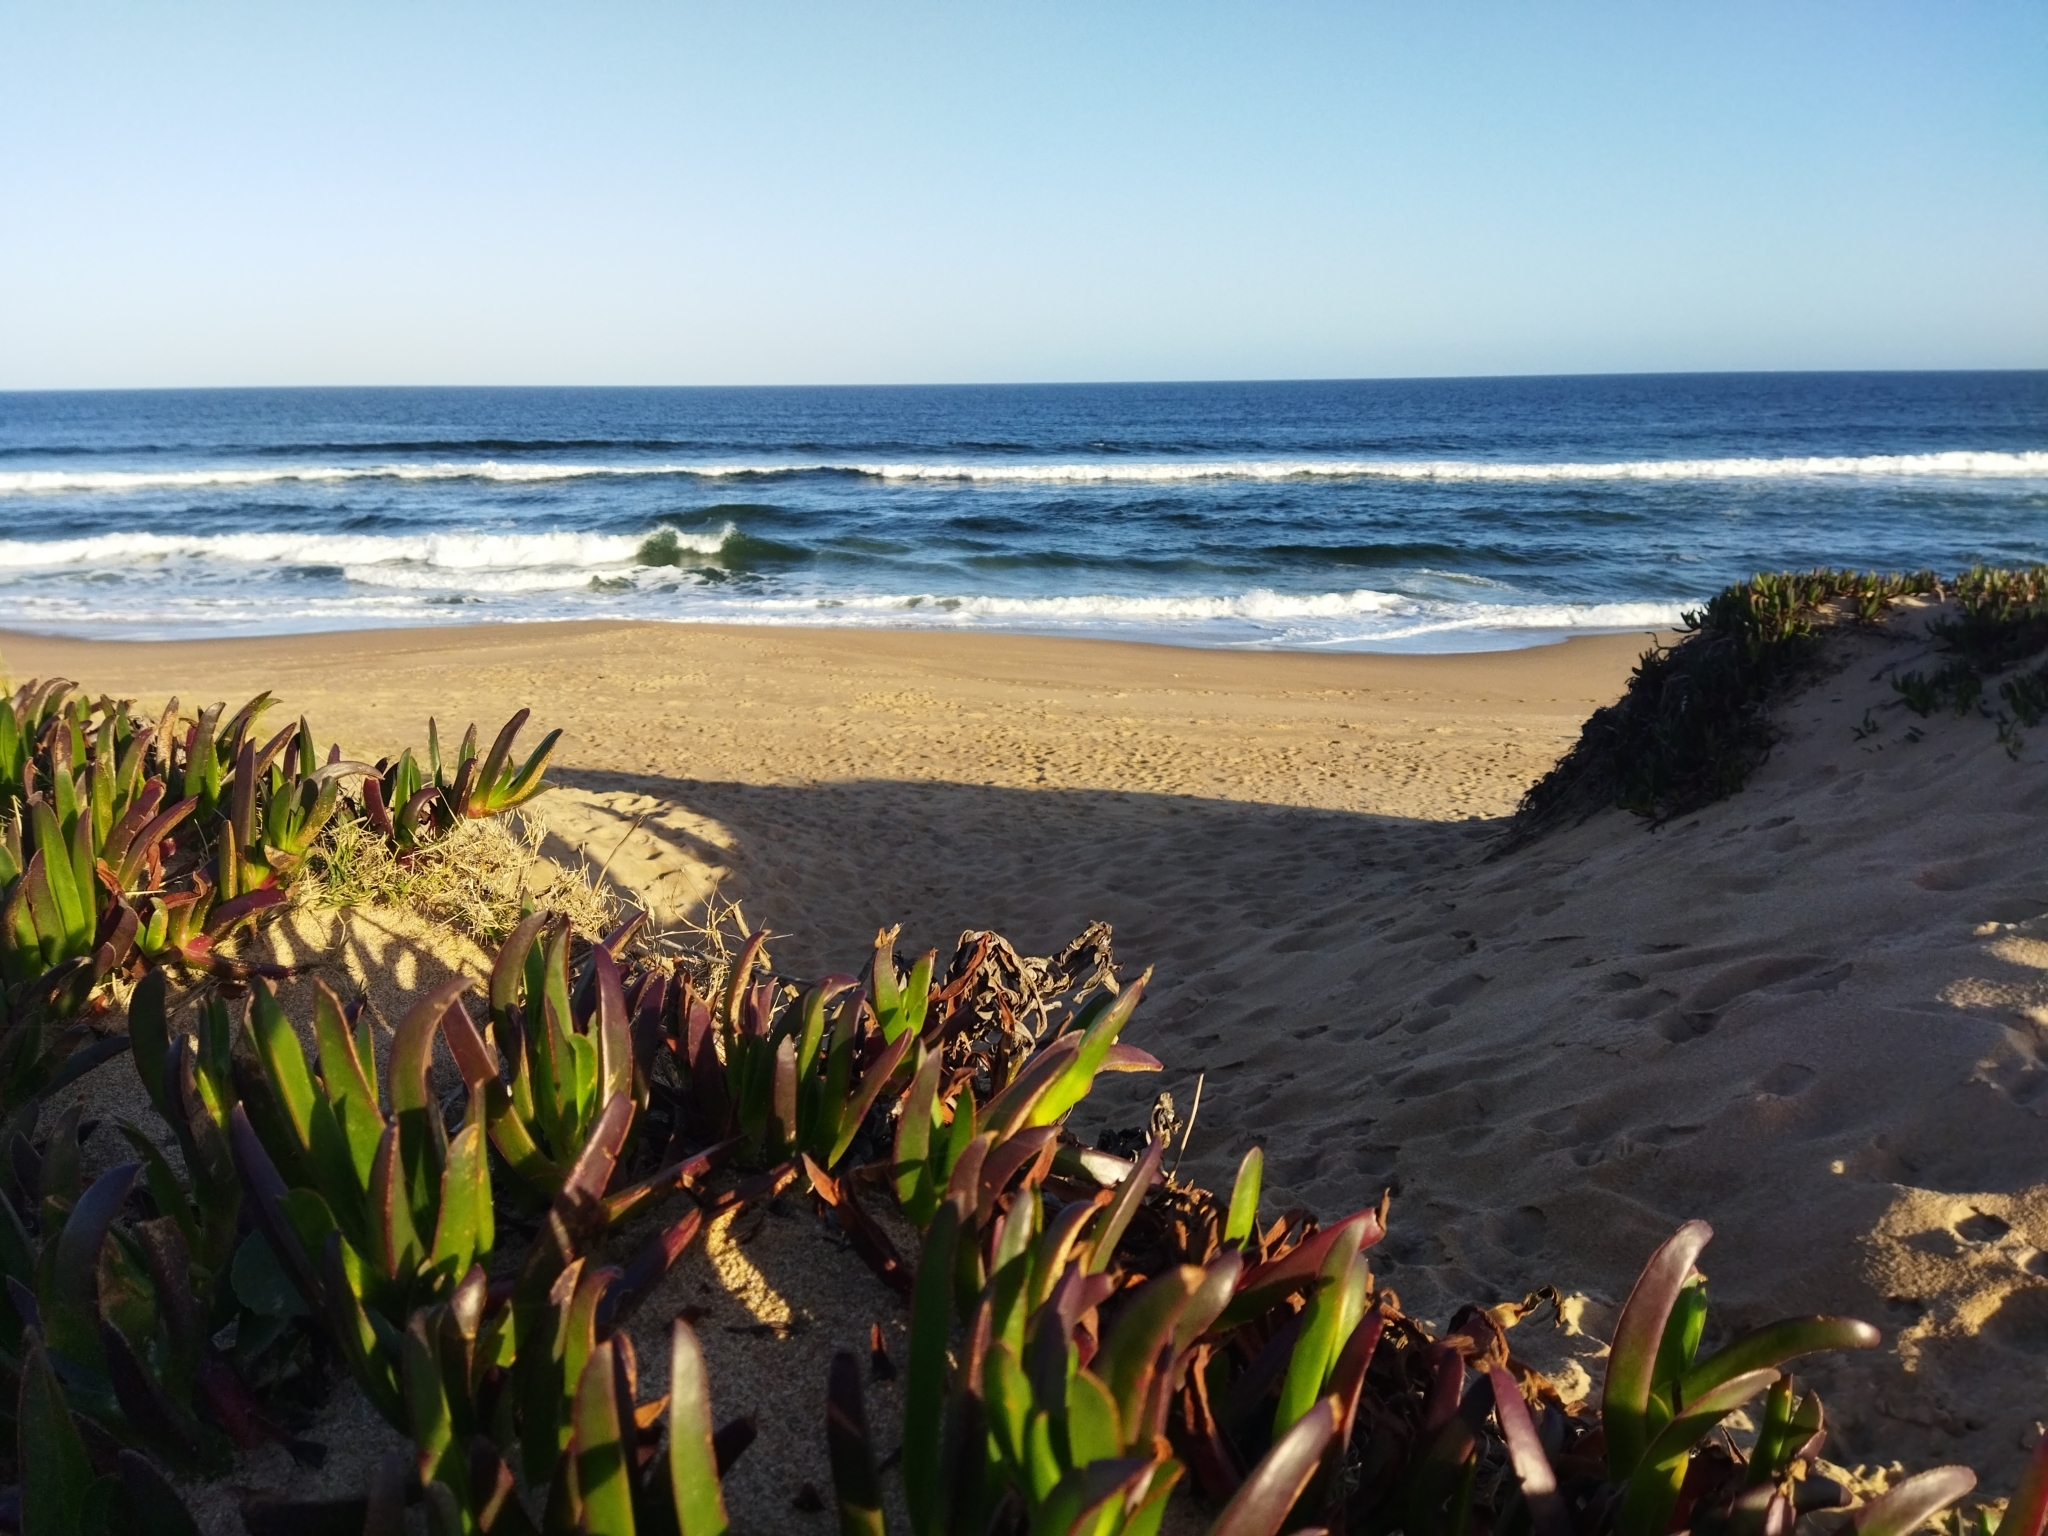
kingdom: Plantae
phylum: Tracheophyta
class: Magnoliopsida
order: Caryophyllales
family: Aizoaceae
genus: Carpobrotus
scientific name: Carpobrotus edulis
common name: Hottentot-fig
